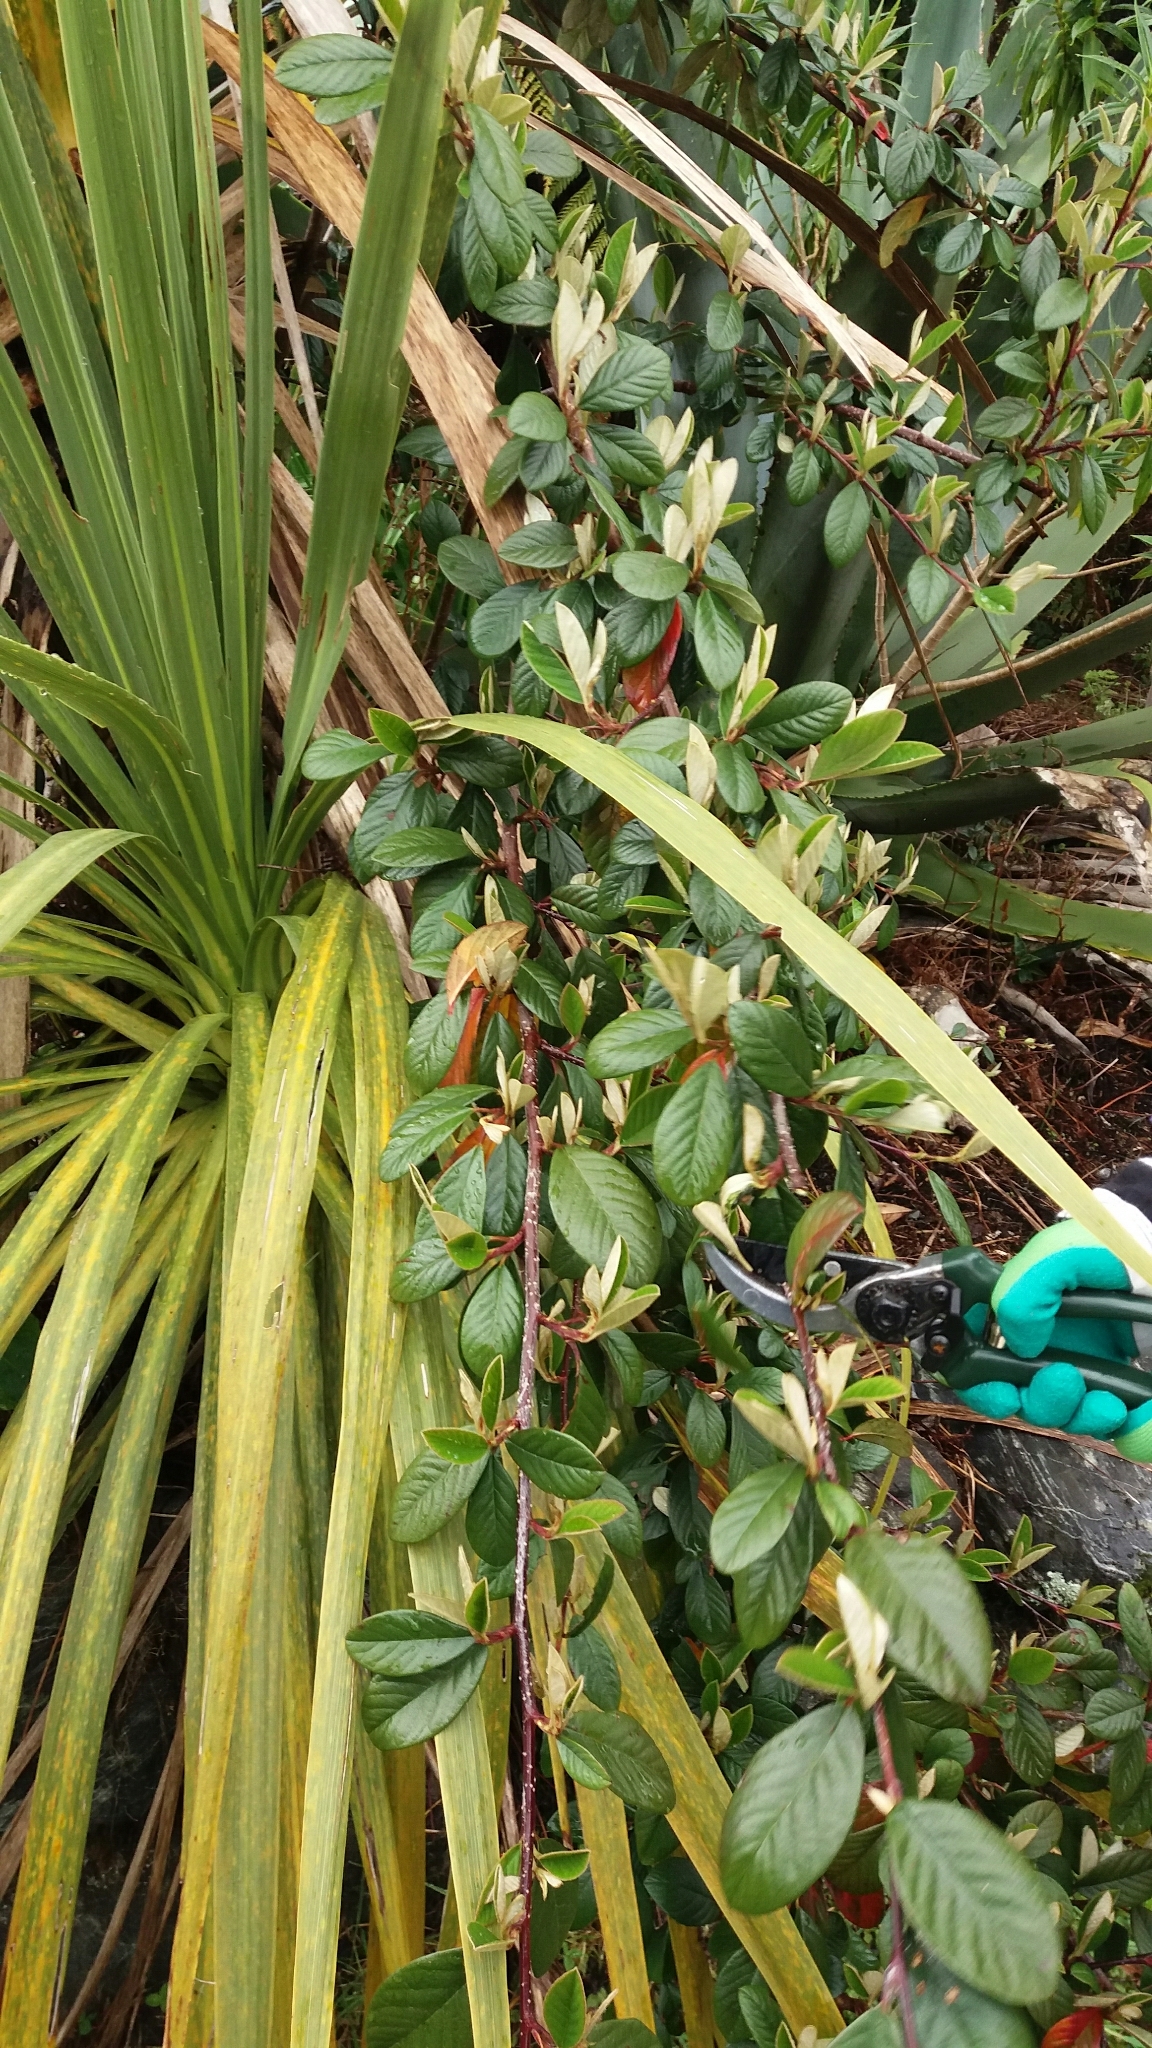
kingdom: Plantae
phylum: Tracheophyta
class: Magnoliopsida
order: Rosales
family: Rosaceae
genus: Cotoneaster
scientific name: Cotoneaster glaucophyllus
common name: Glaucous cotoneaster
